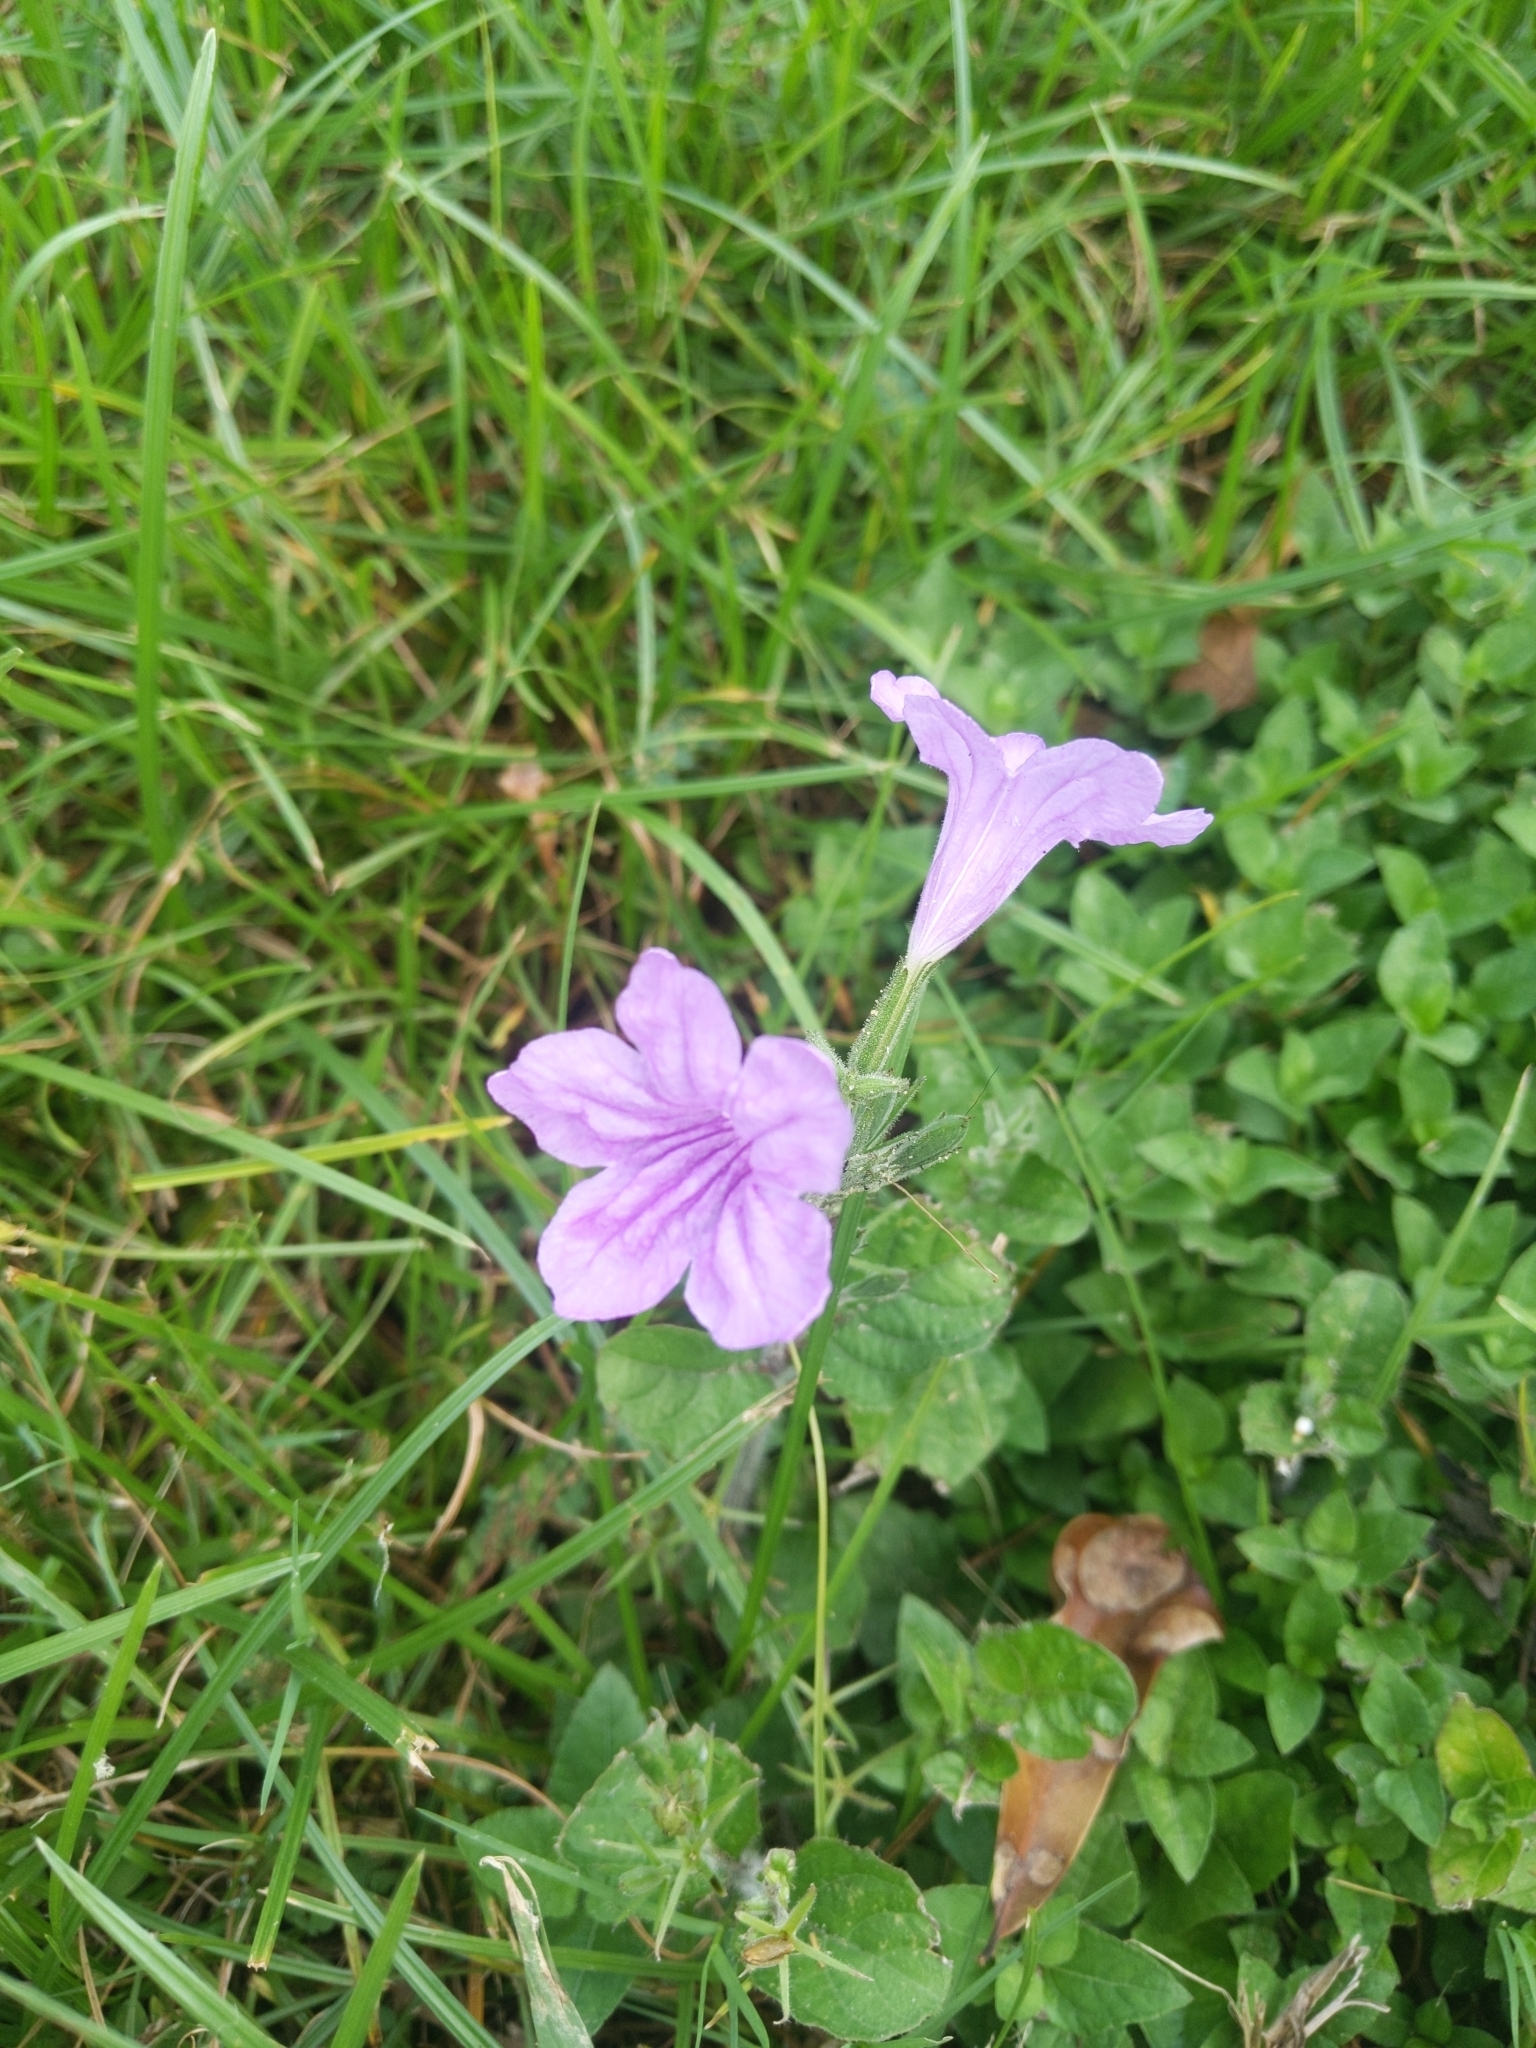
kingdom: Plantae
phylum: Tracheophyta
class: Magnoliopsida
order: Lamiales
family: Acanthaceae
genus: Ruellia
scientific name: Ruellia ciliatiflora
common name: Hairyflower wild petunia
